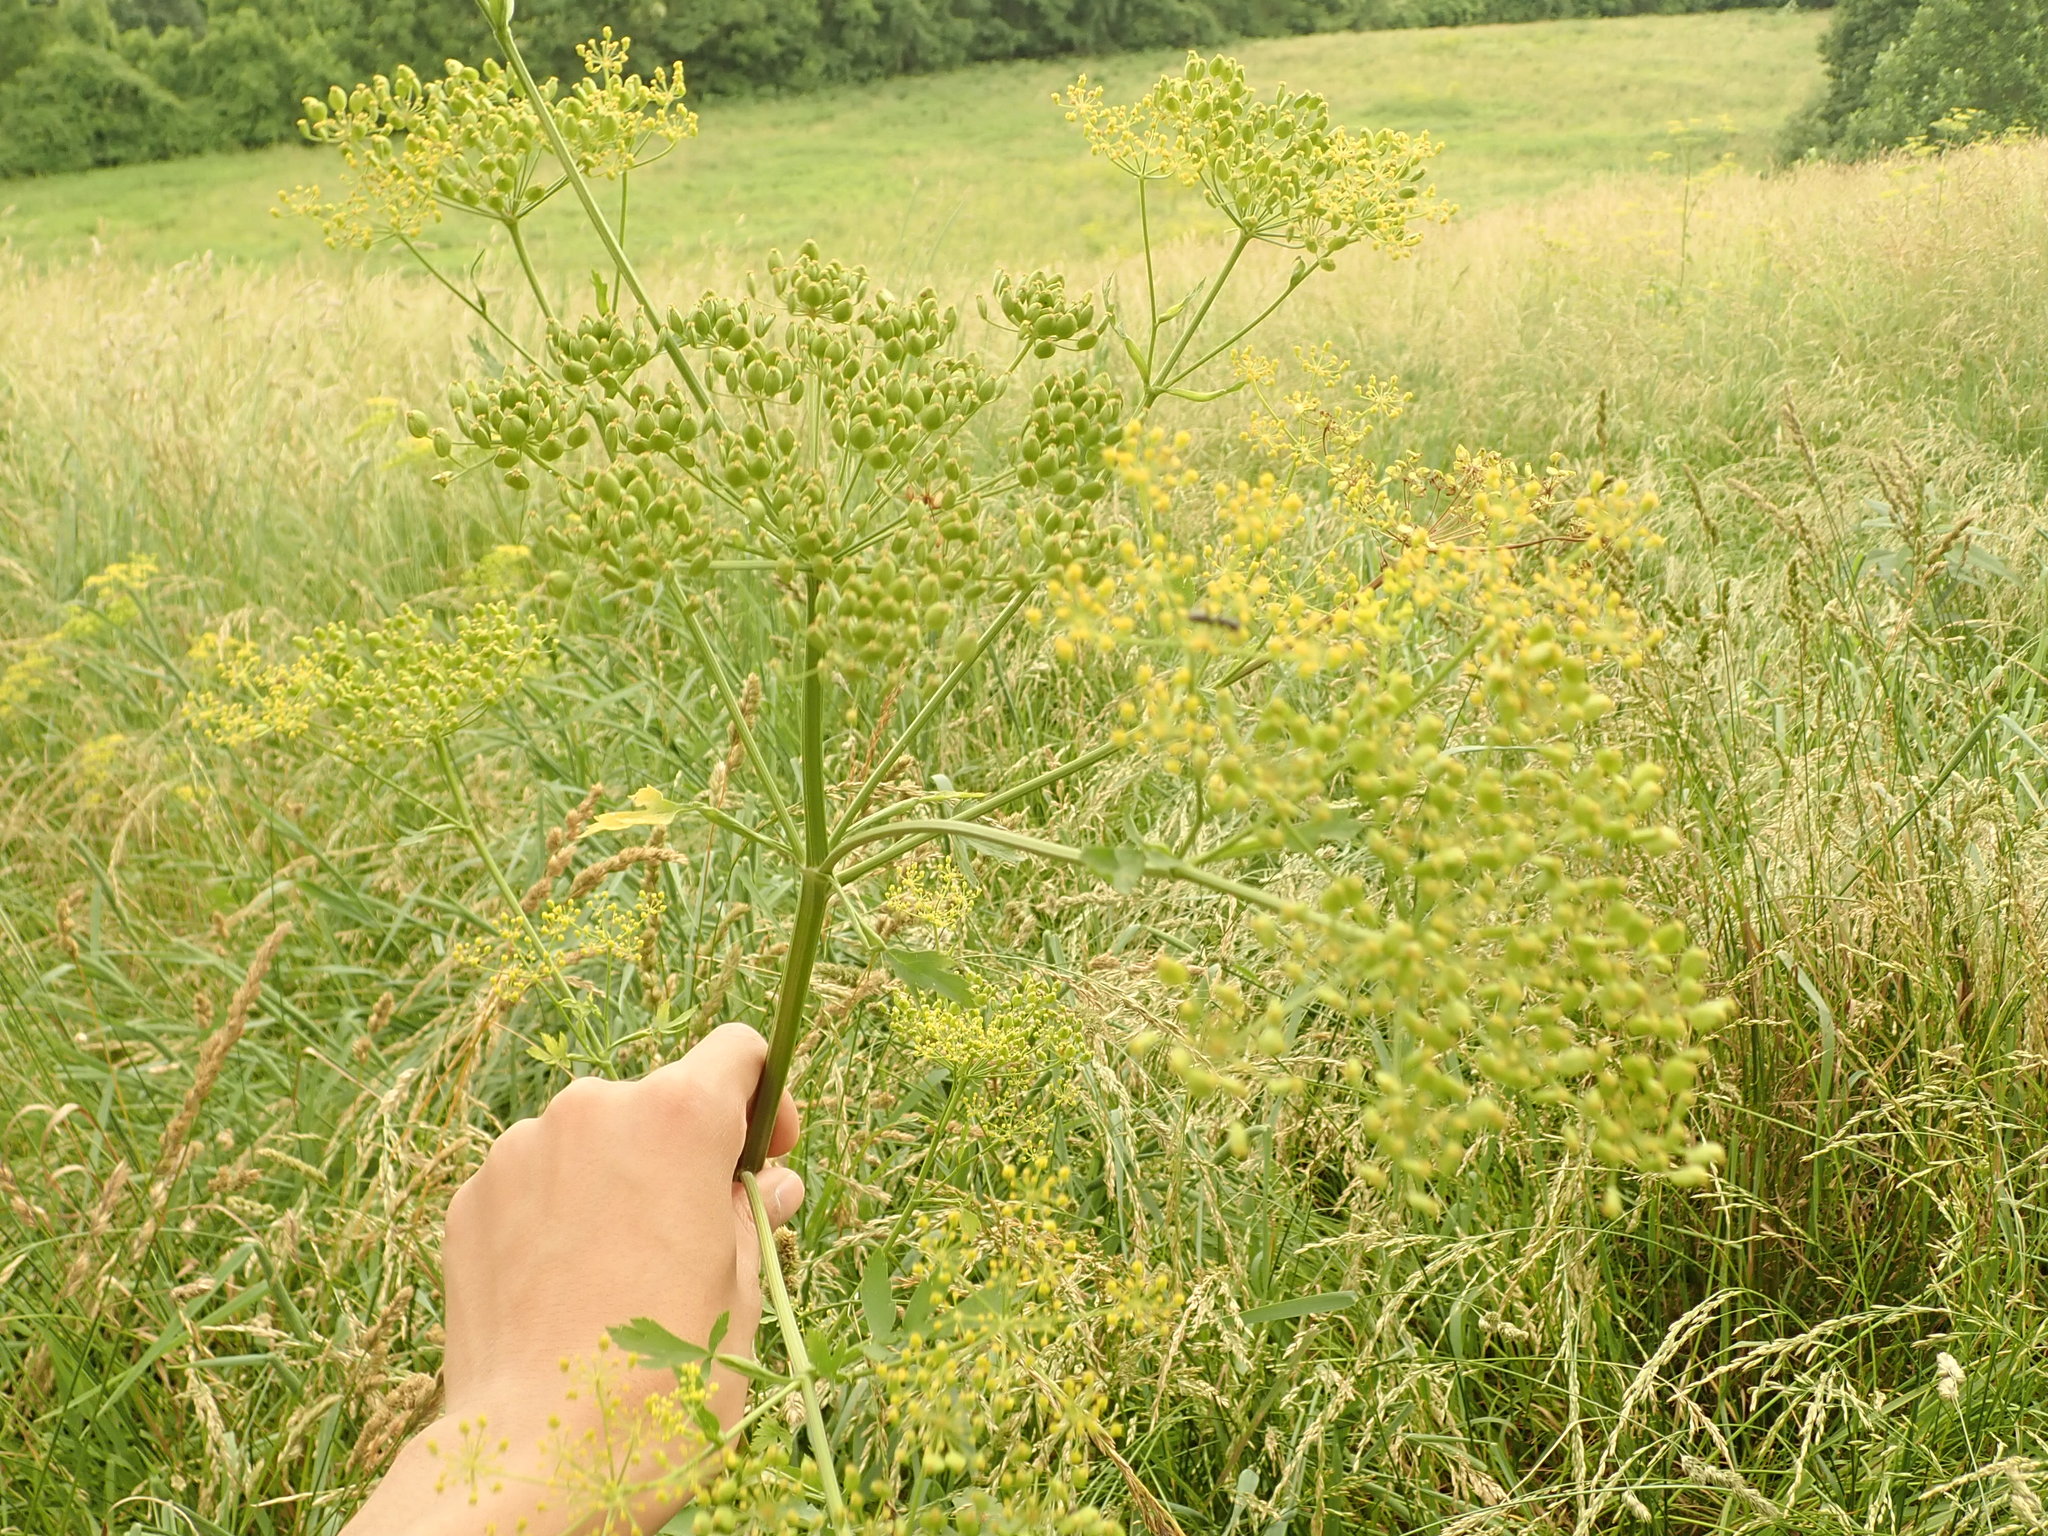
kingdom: Plantae
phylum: Tracheophyta
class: Magnoliopsida
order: Apiales
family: Apiaceae
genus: Pastinaca
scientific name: Pastinaca sativa
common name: Wild parsnip
